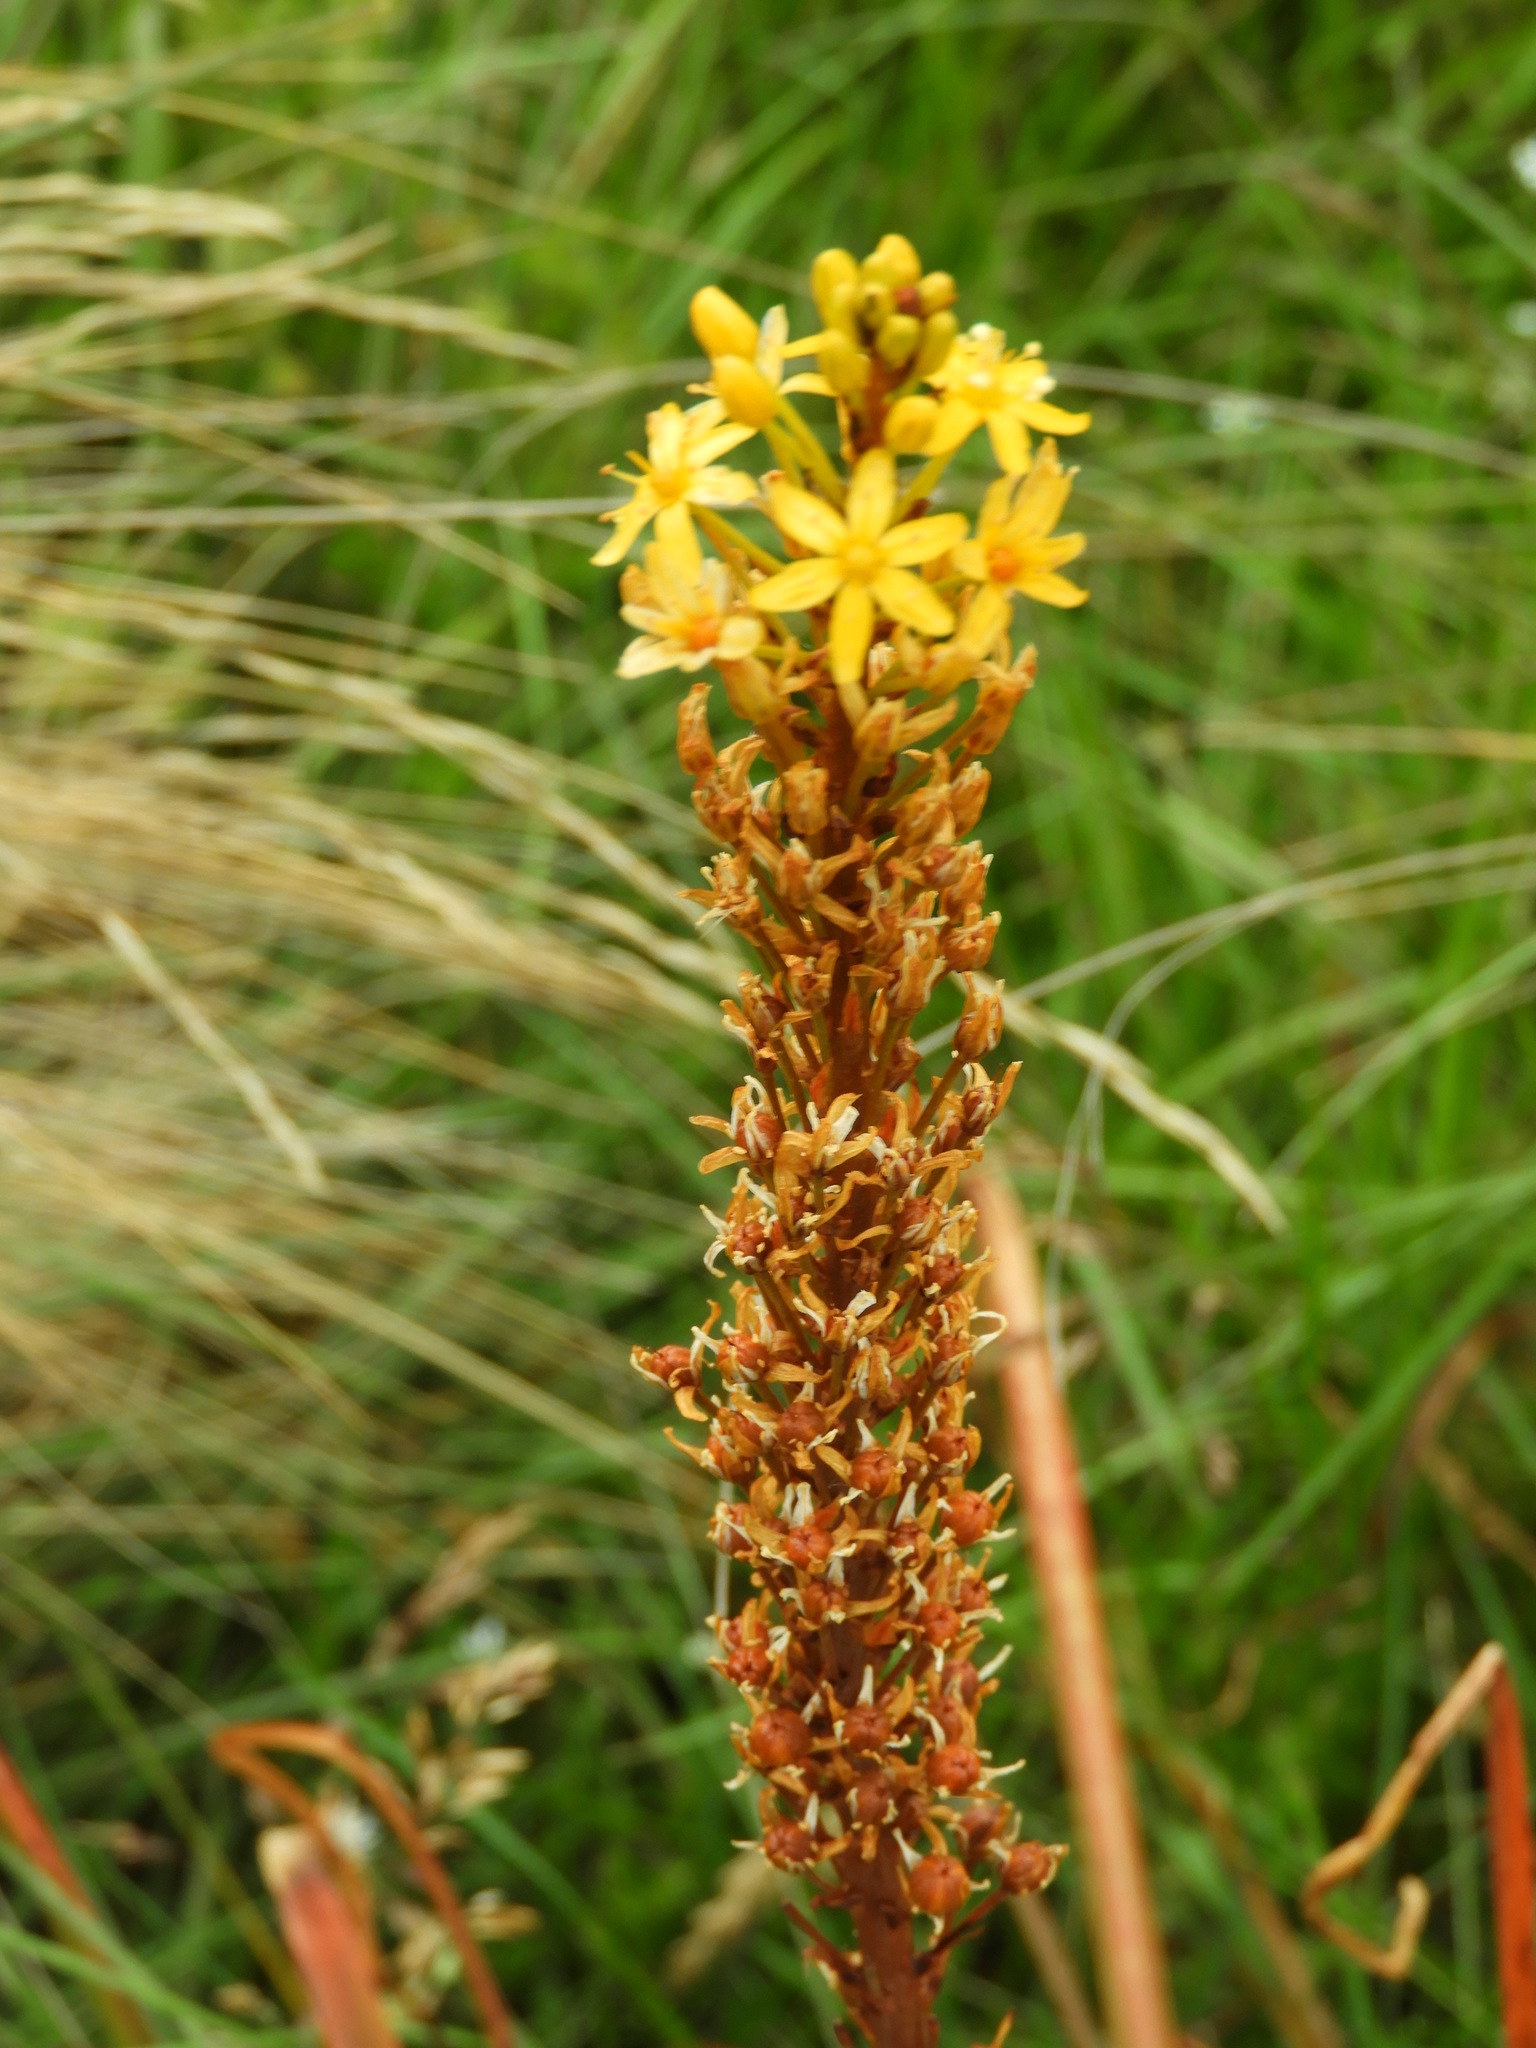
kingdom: Plantae
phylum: Tracheophyta
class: Liliopsida
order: Asparagales
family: Asphodelaceae
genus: Bulbinella
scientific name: Bulbinella angustifolia
